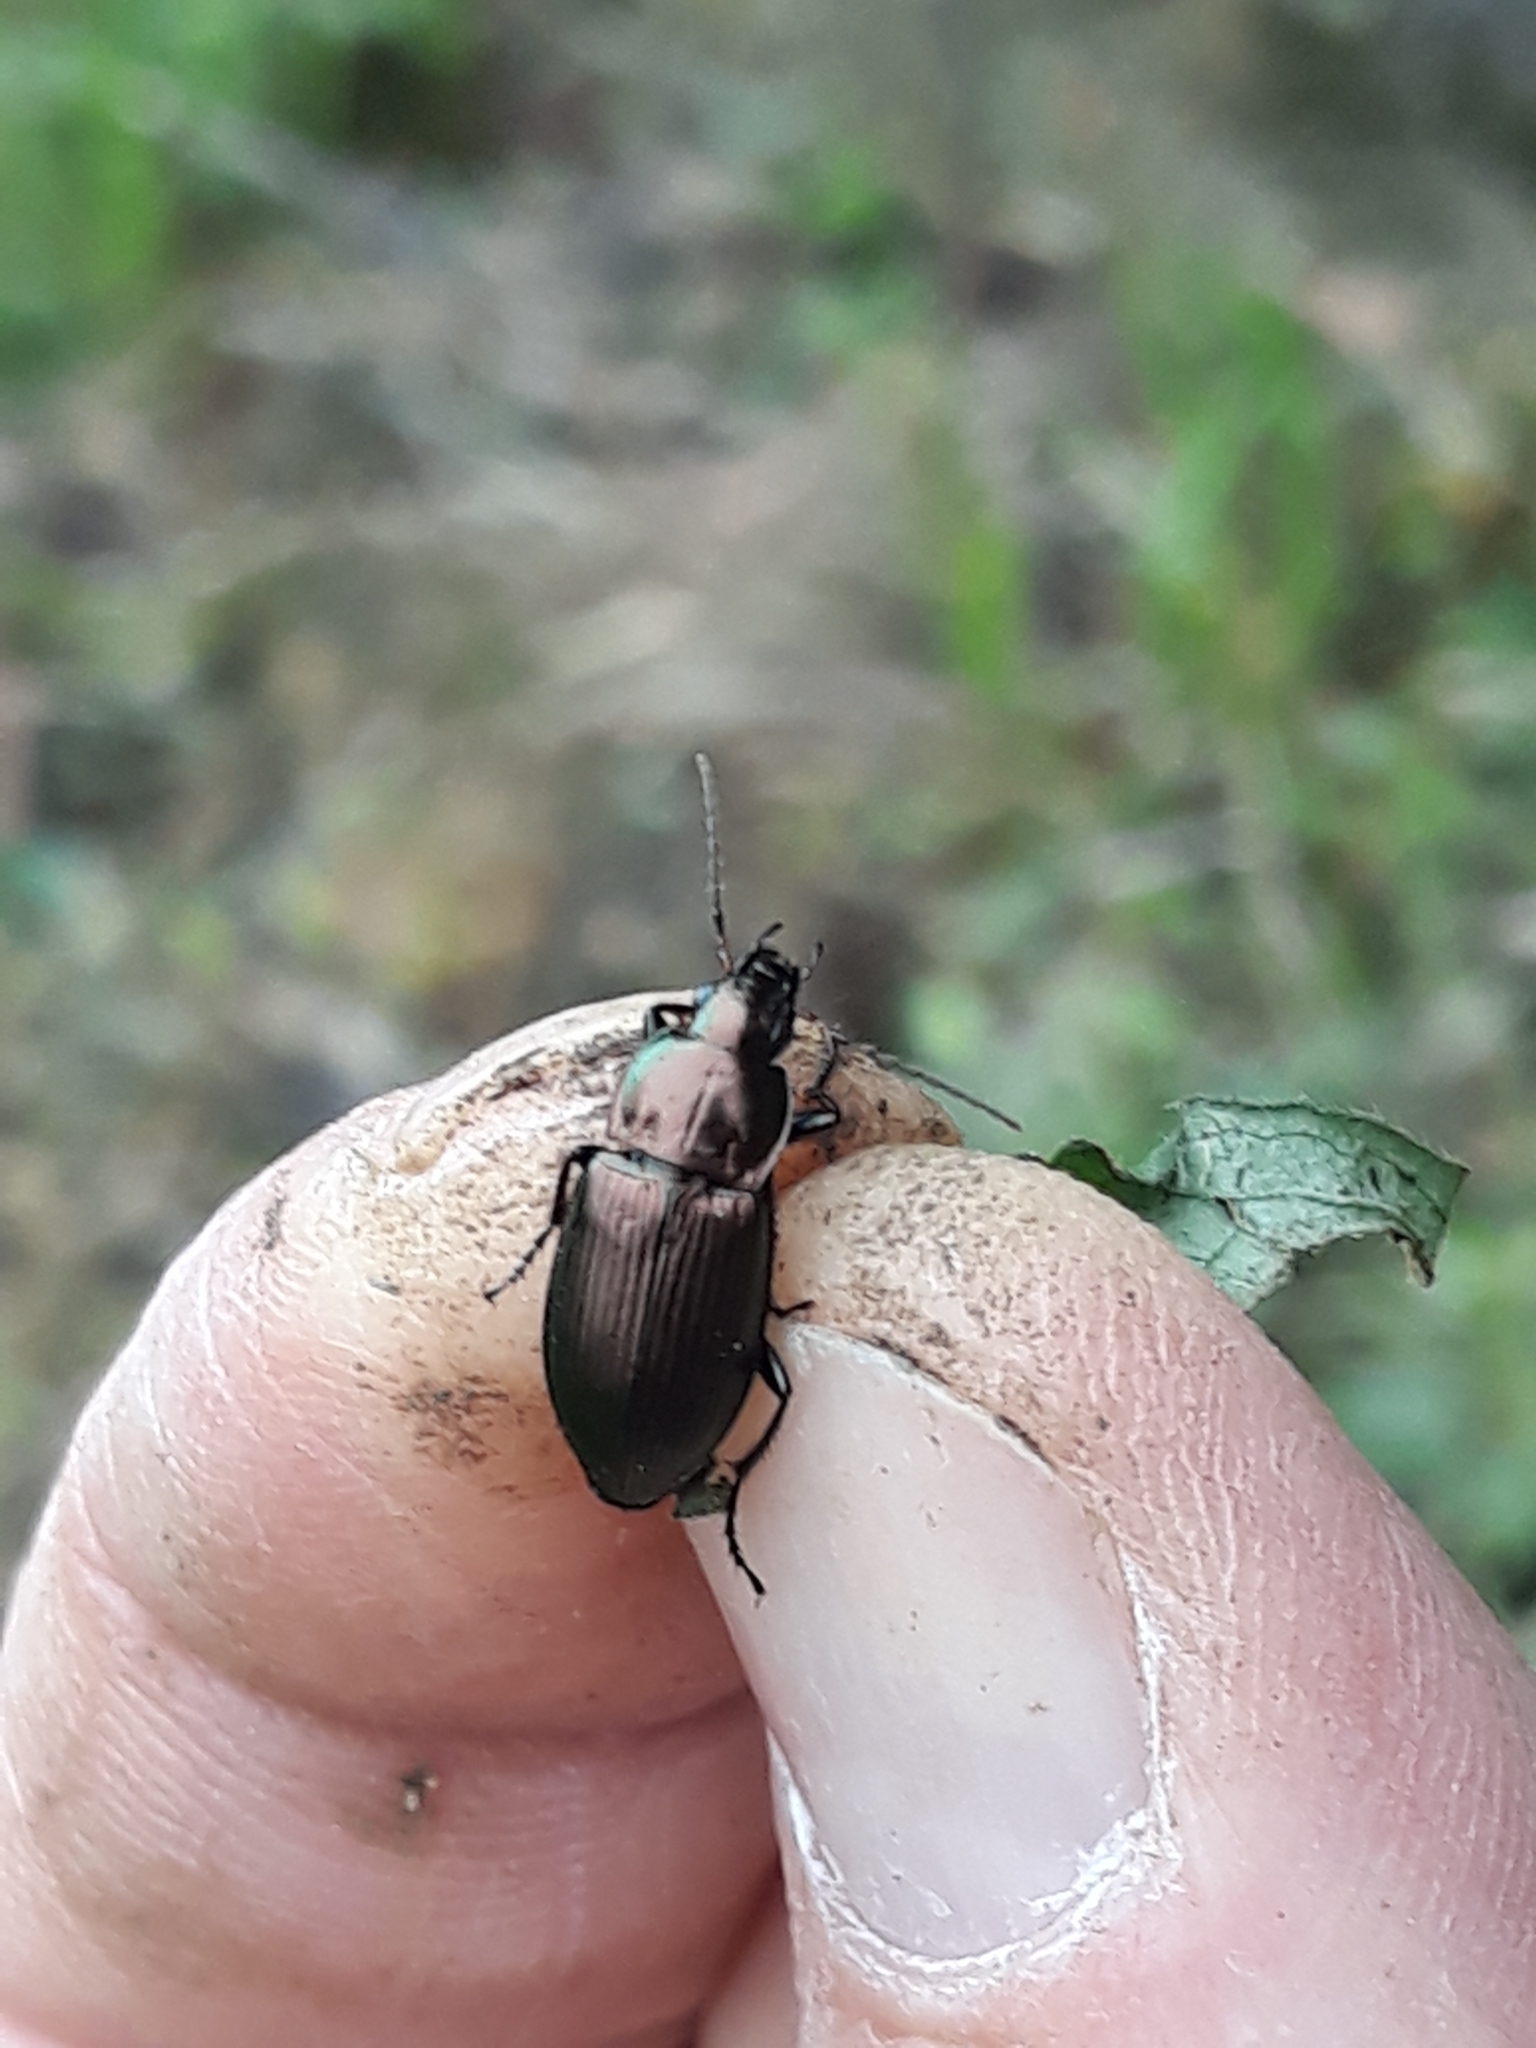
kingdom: Animalia
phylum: Arthropoda
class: Insecta
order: Coleoptera
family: Carabidae
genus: Poecilus
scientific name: Poecilus cupreus
